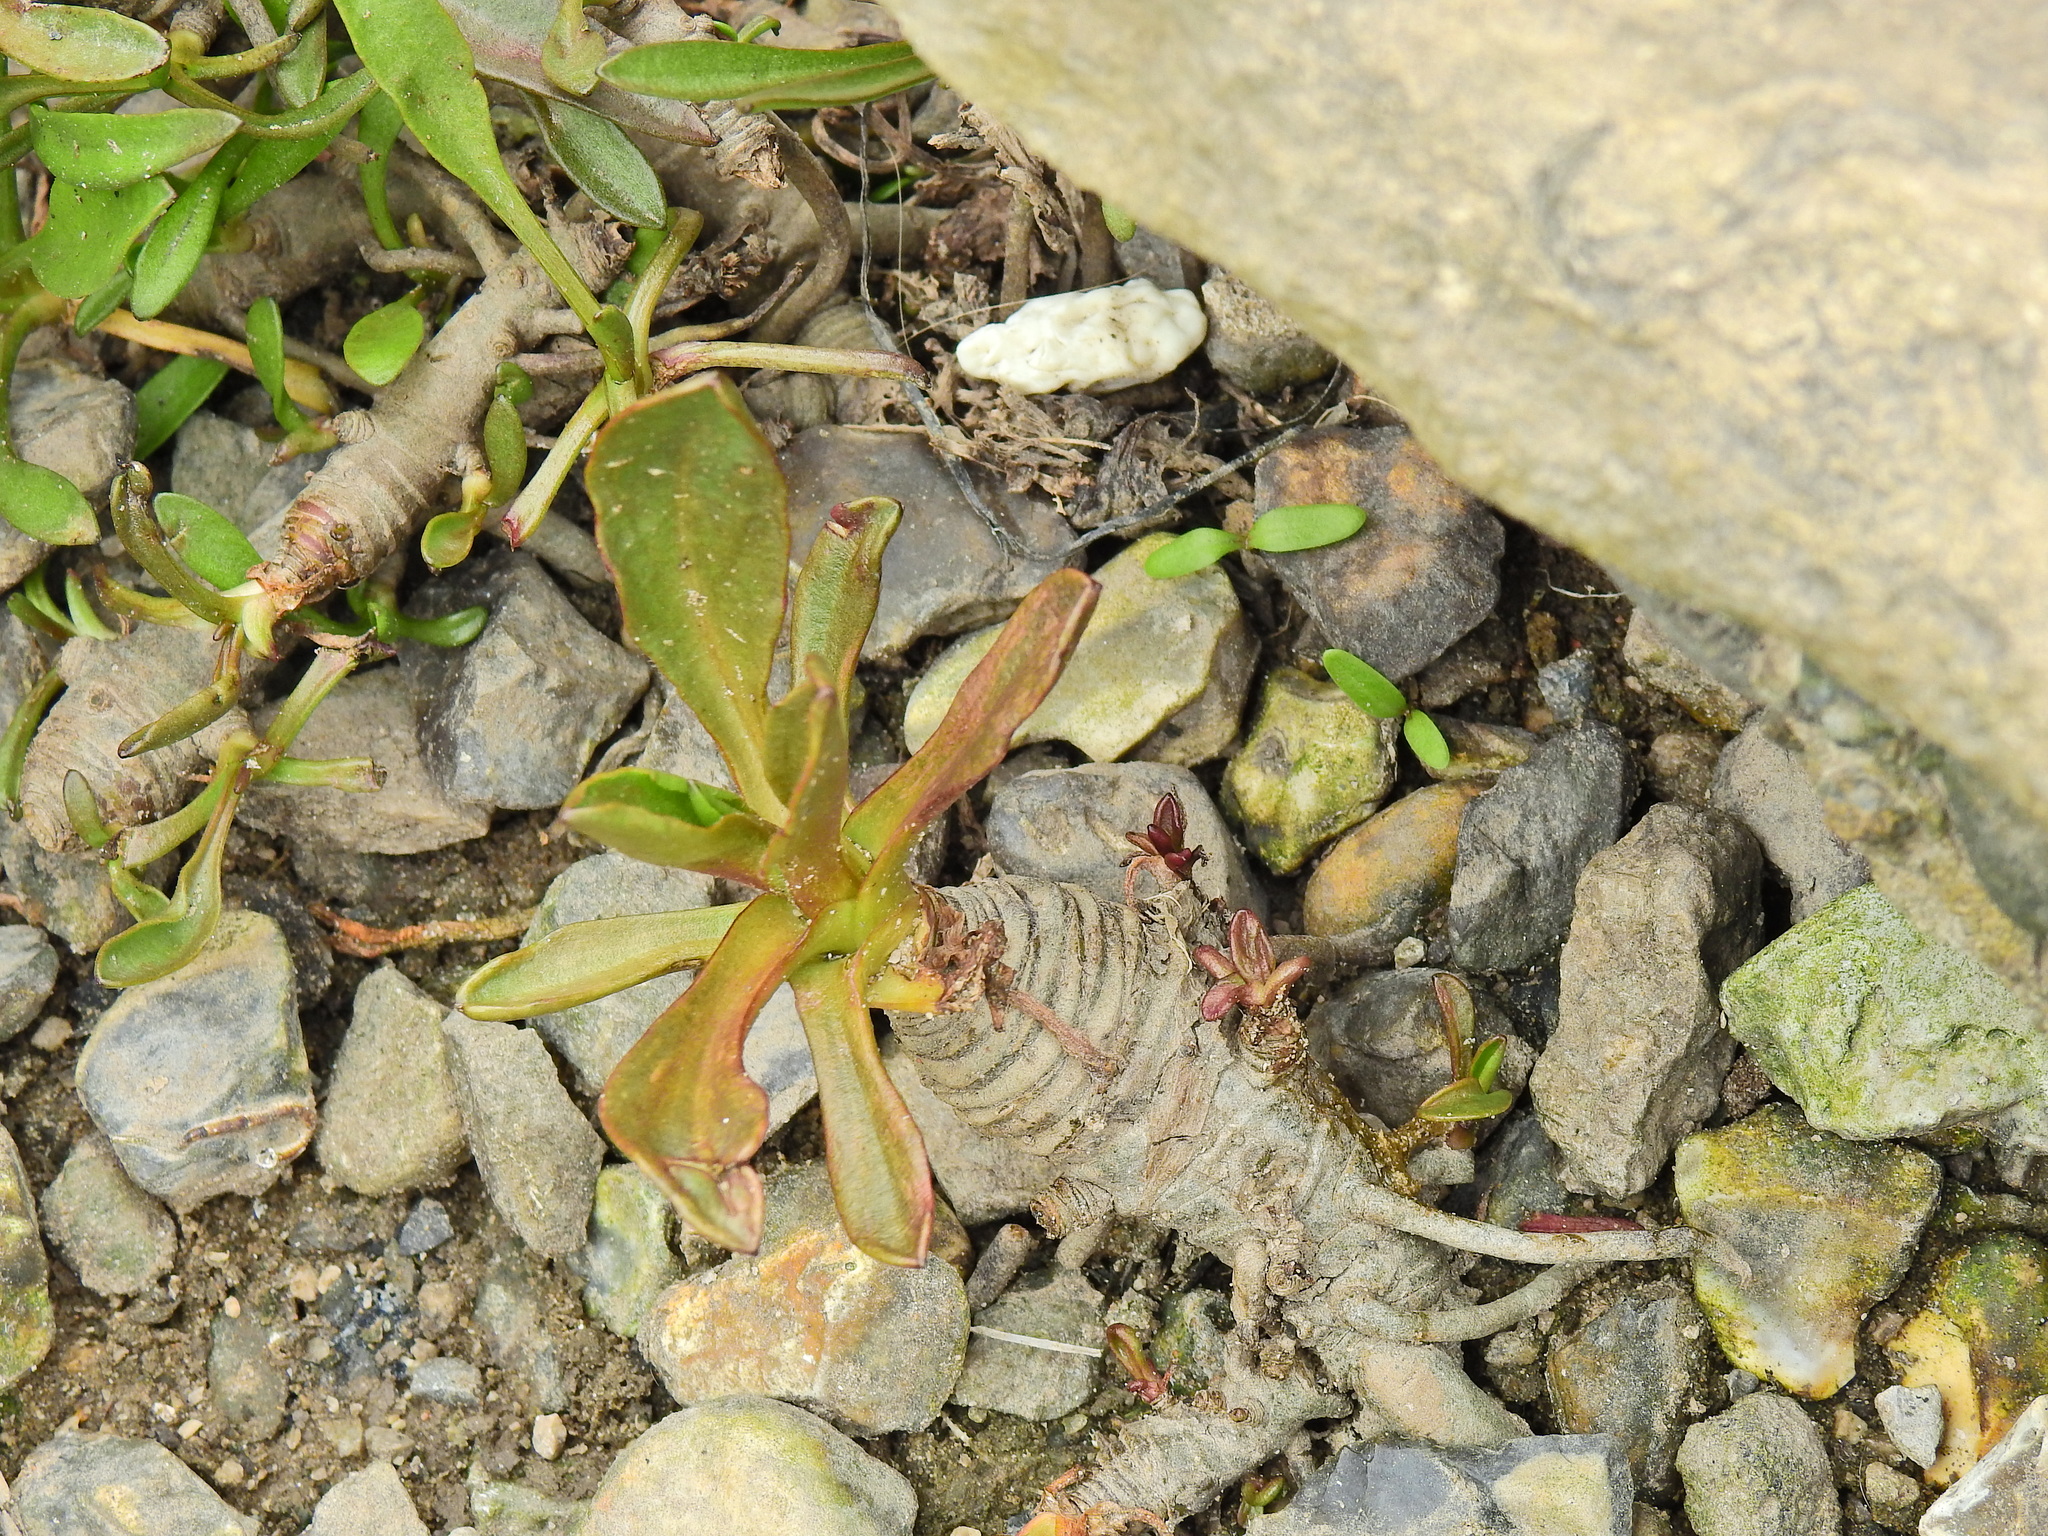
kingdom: Plantae
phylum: Tracheophyta
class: Magnoliopsida
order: Asterales
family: Asteraceae
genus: Tripolium
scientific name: Tripolium pannonicum
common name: Sea aster
